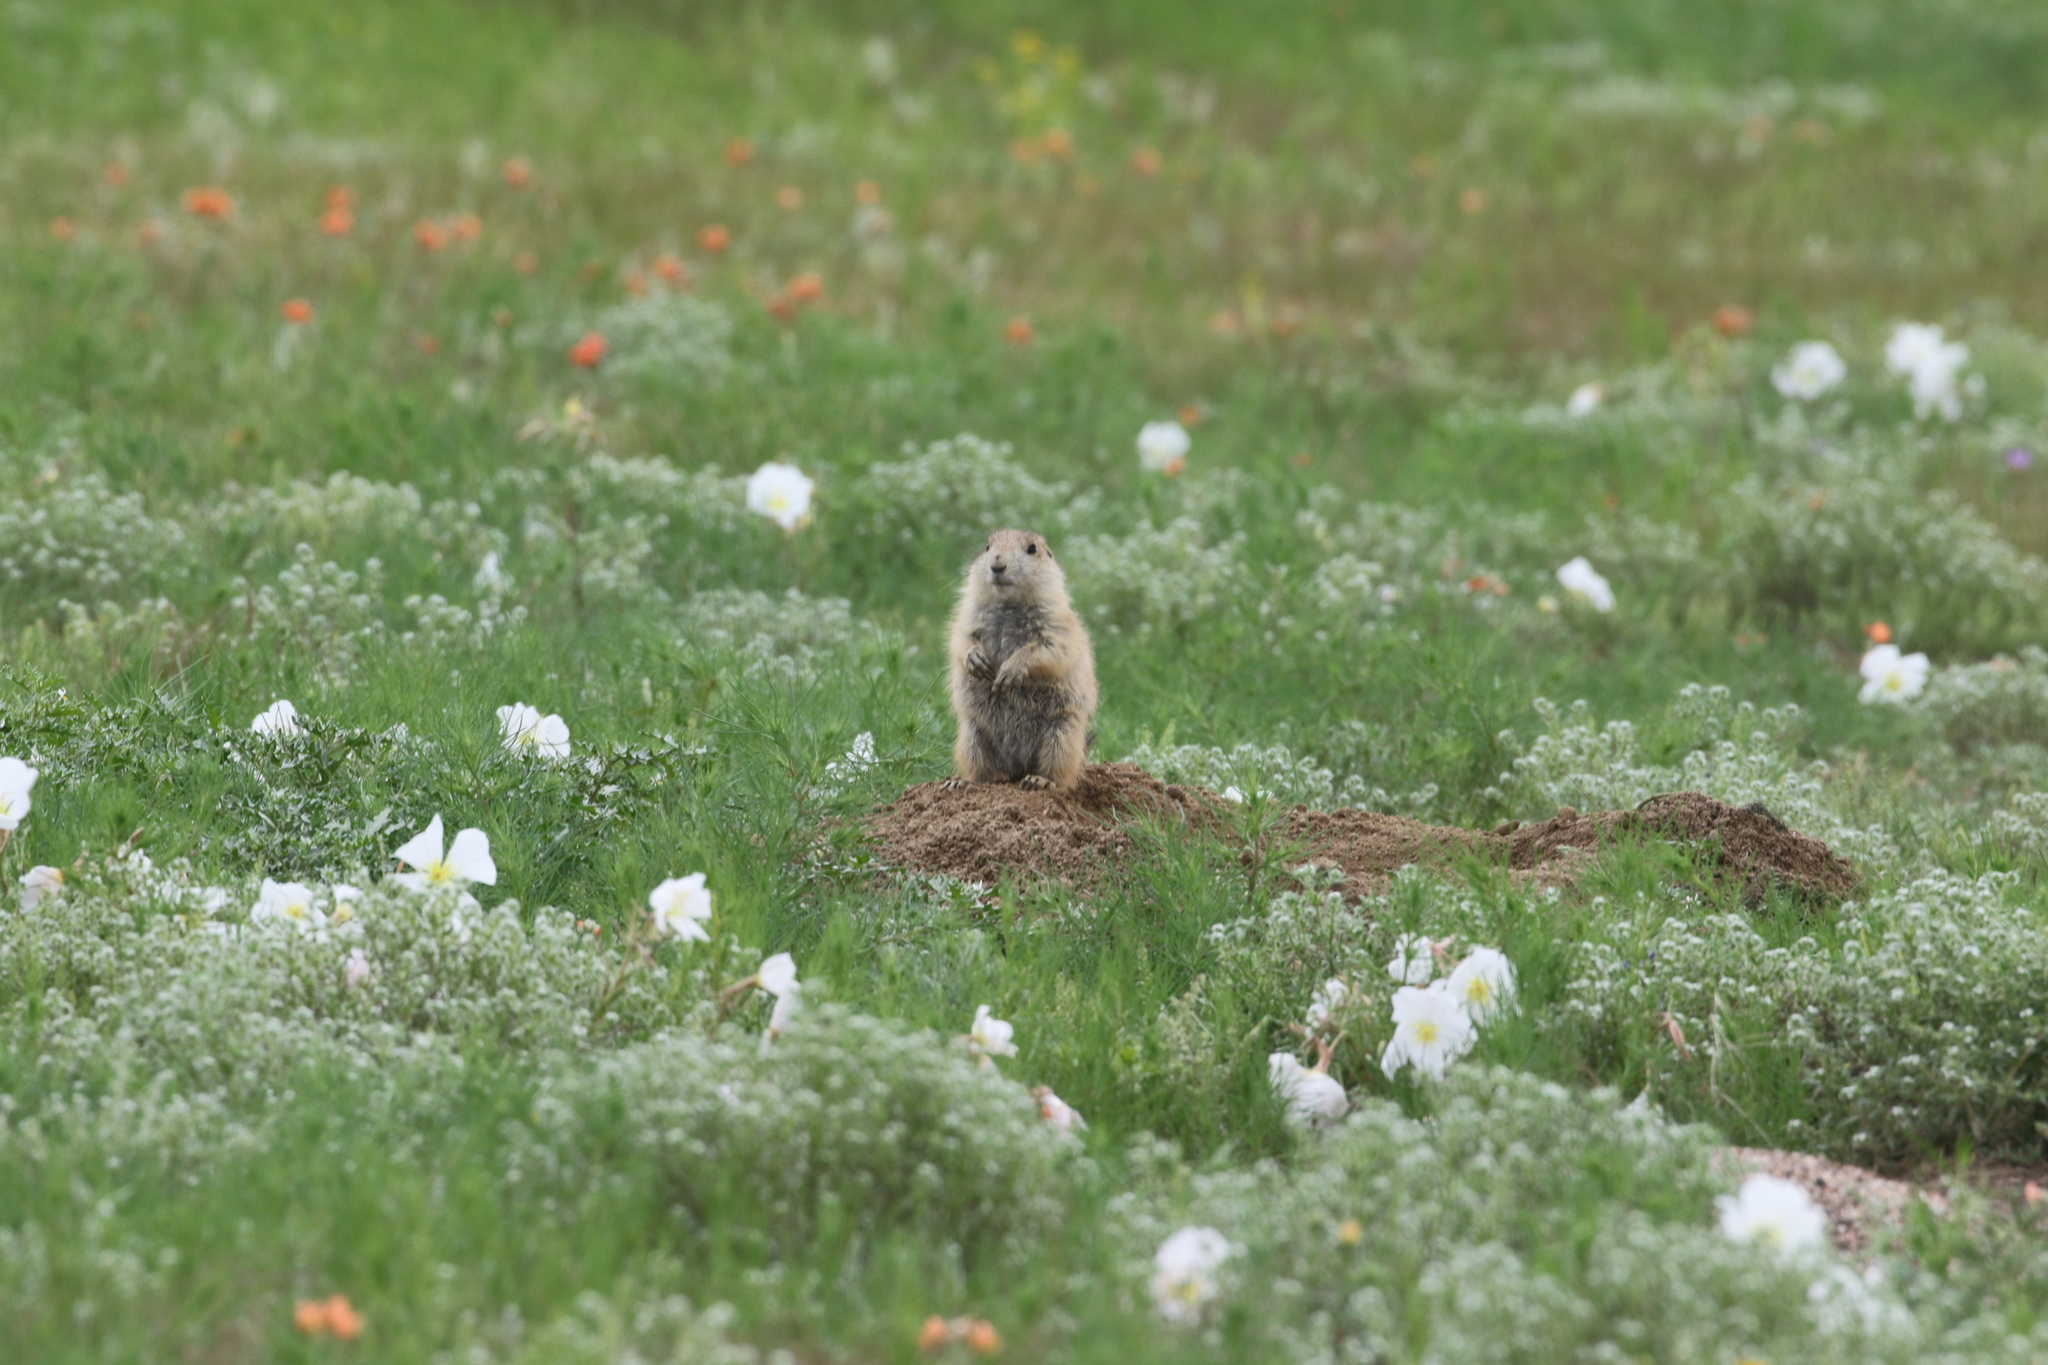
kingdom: Animalia
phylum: Chordata
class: Mammalia
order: Rodentia
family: Sciuridae
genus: Cynomys
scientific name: Cynomys ludovicianus
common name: Black-tailed prairie dog
